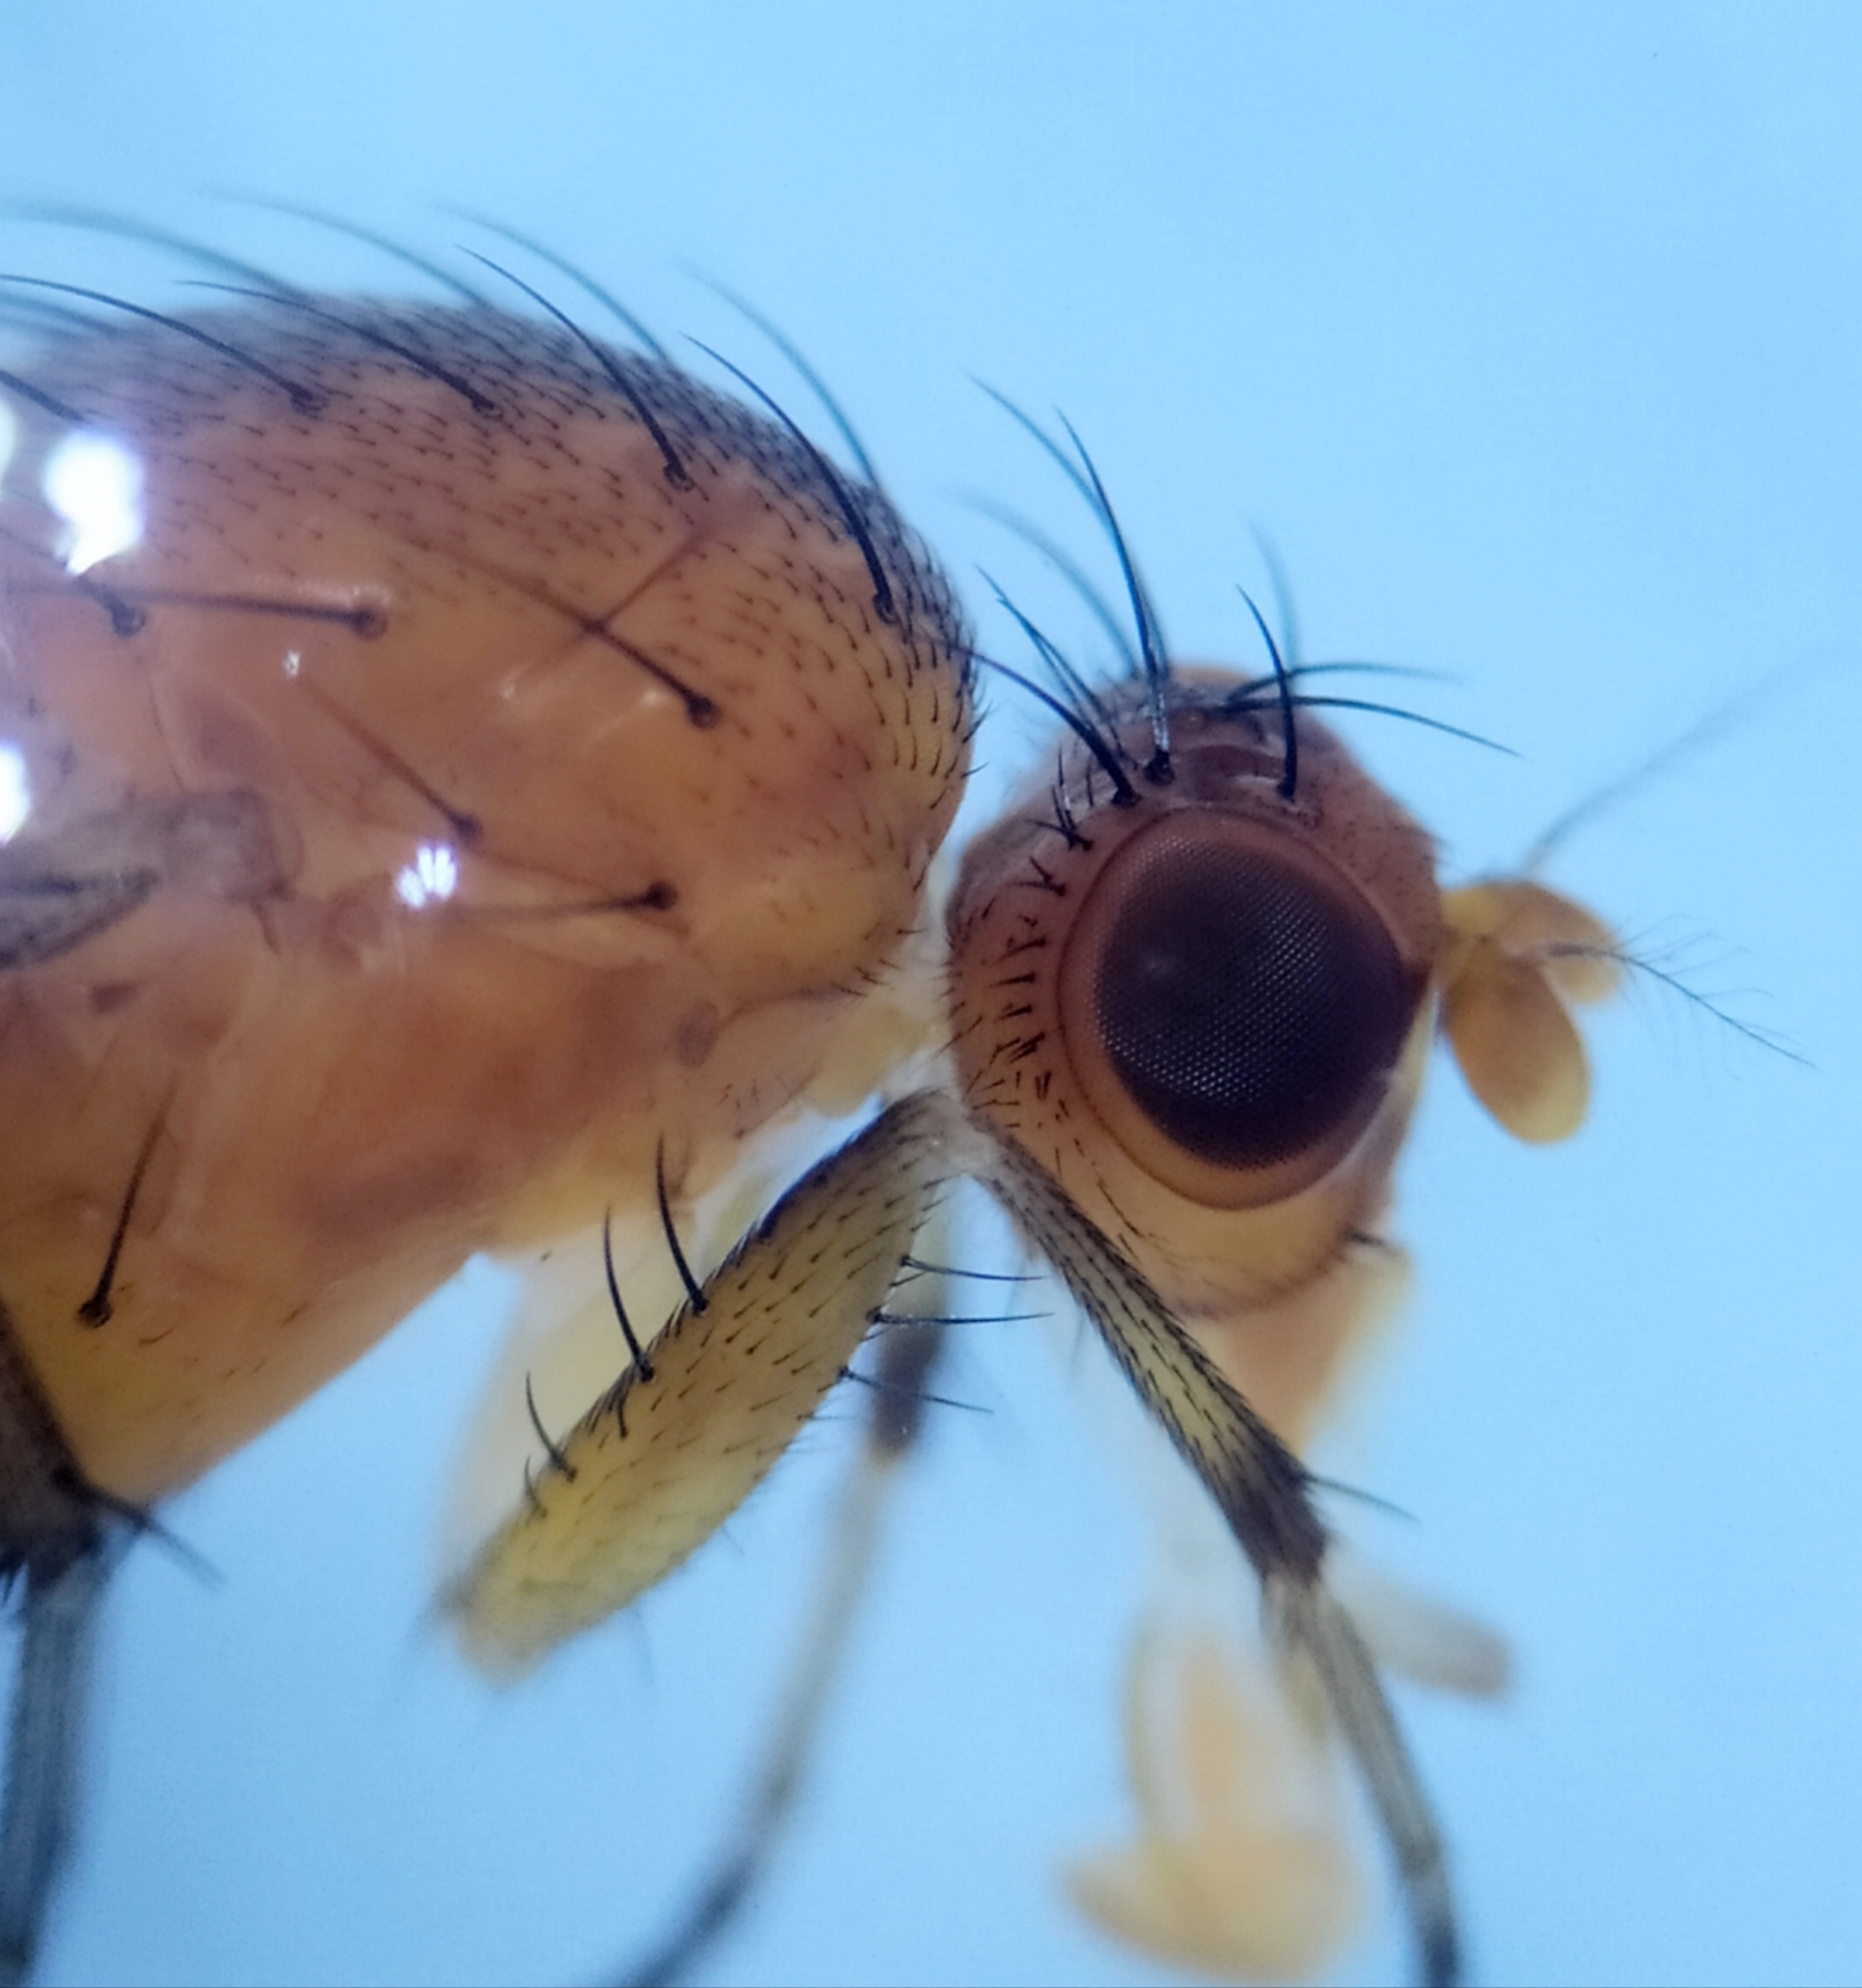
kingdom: Animalia
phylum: Arthropoda
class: Insecta
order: Diptera
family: Heleomyzidae
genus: Suillia
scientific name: Suillia affinis
